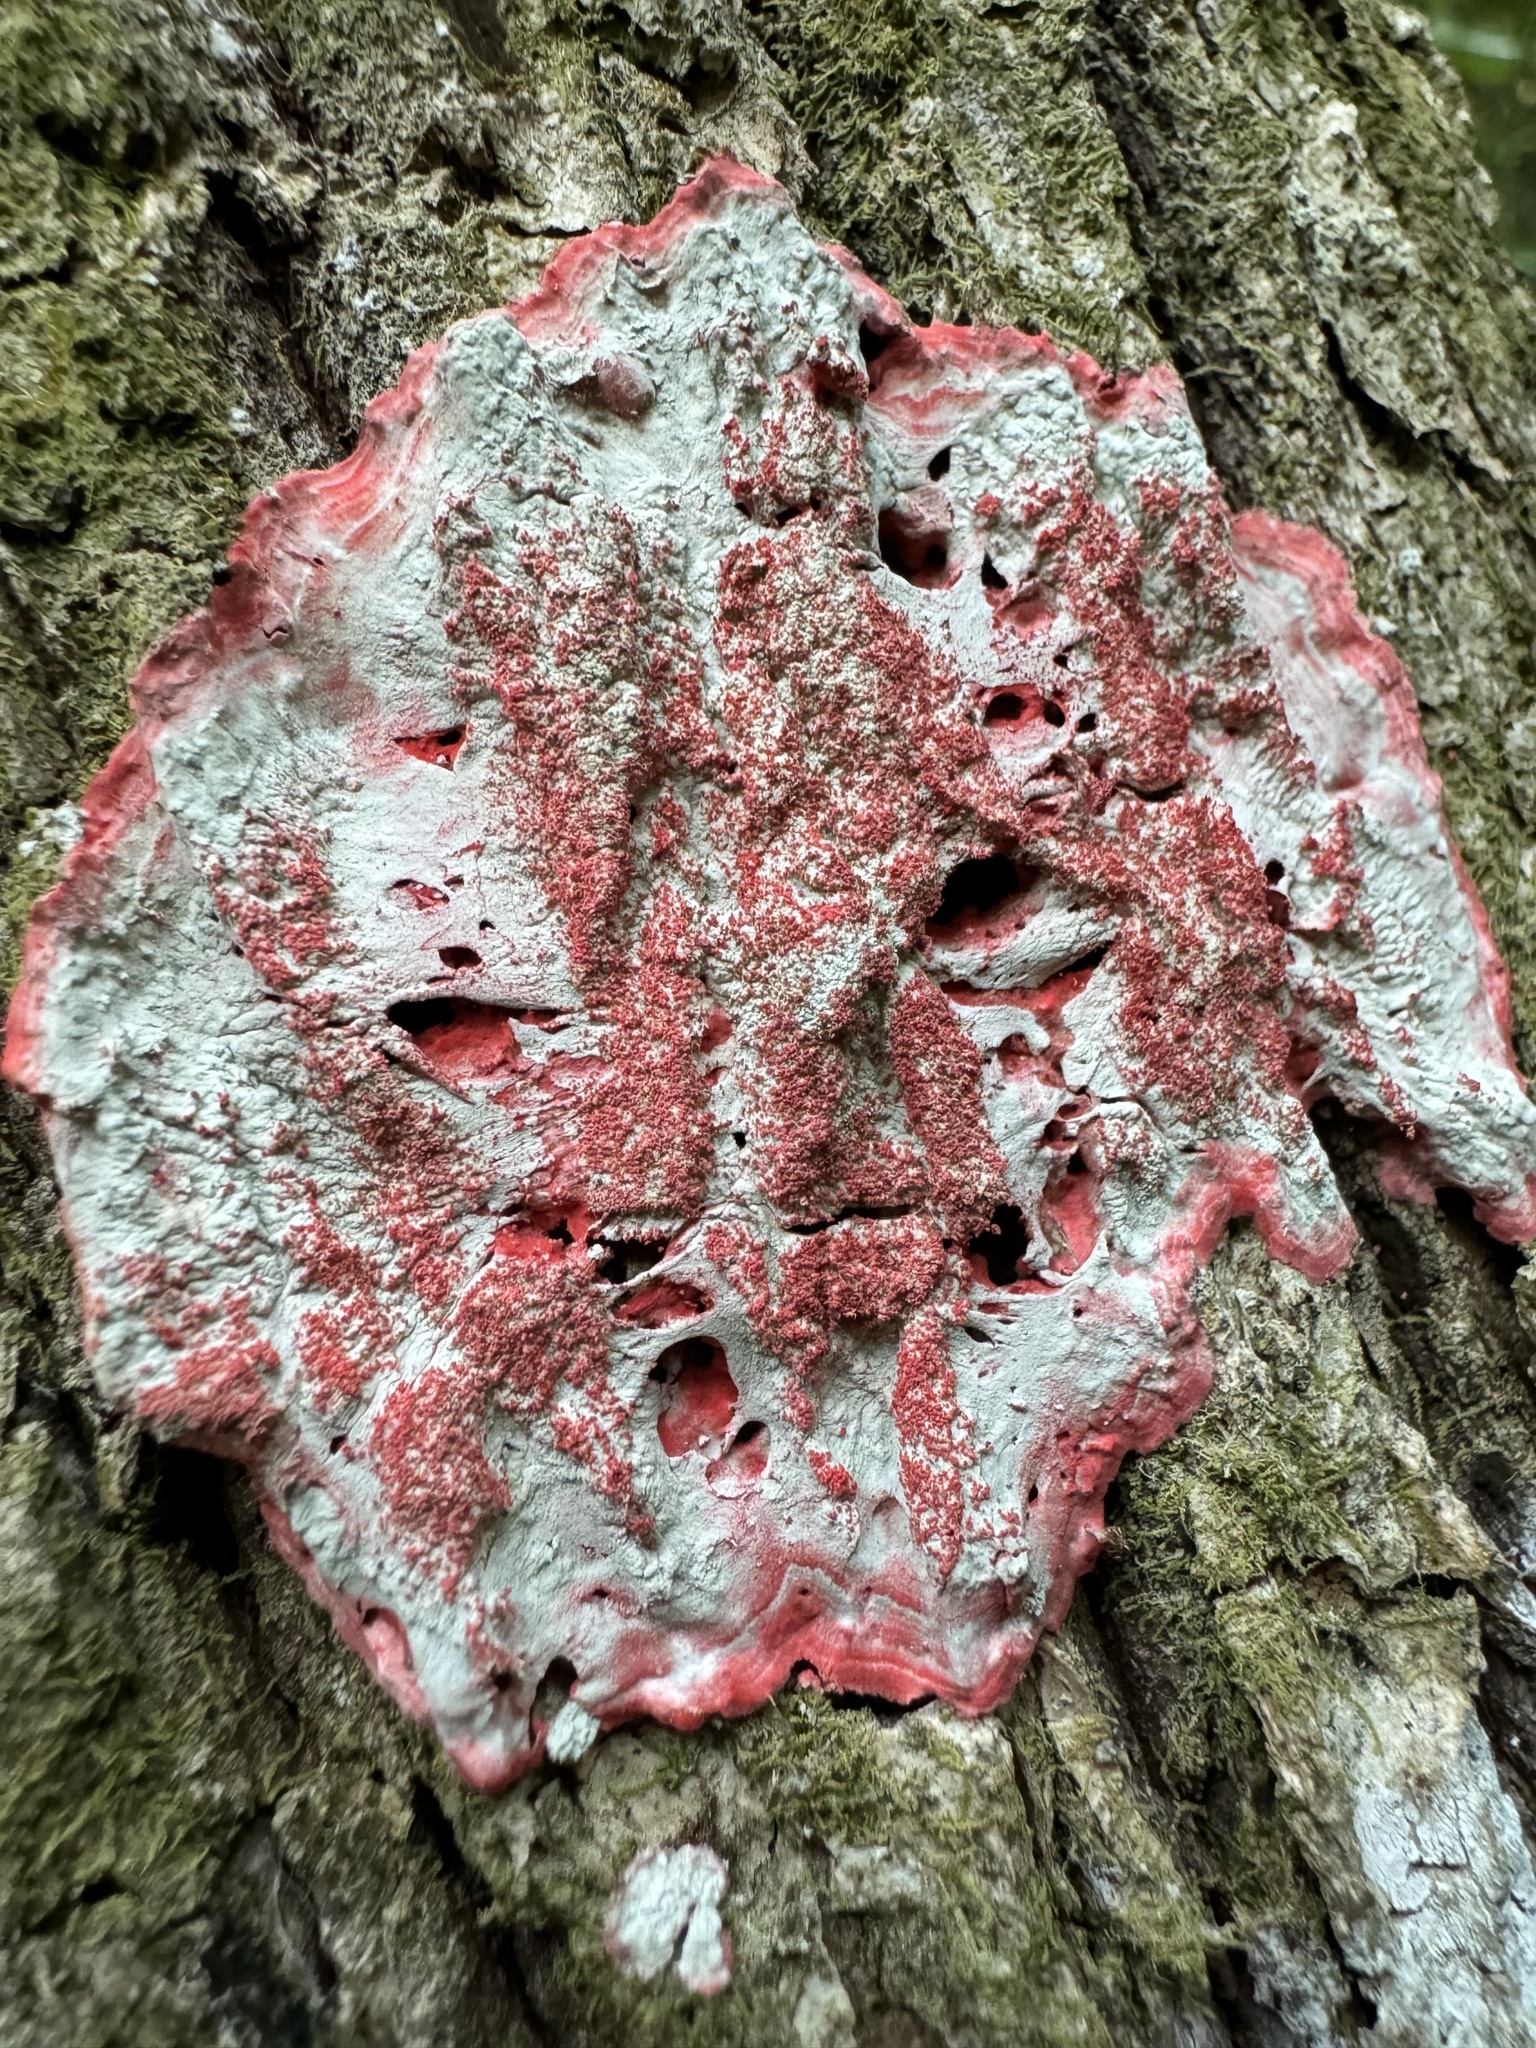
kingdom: Fungi
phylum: Ascomycota
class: Arthoniomycetes
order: Arthoniales
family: Arthoniaceae
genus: Herpothallon
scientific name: Herpothallon rubrocinctum
